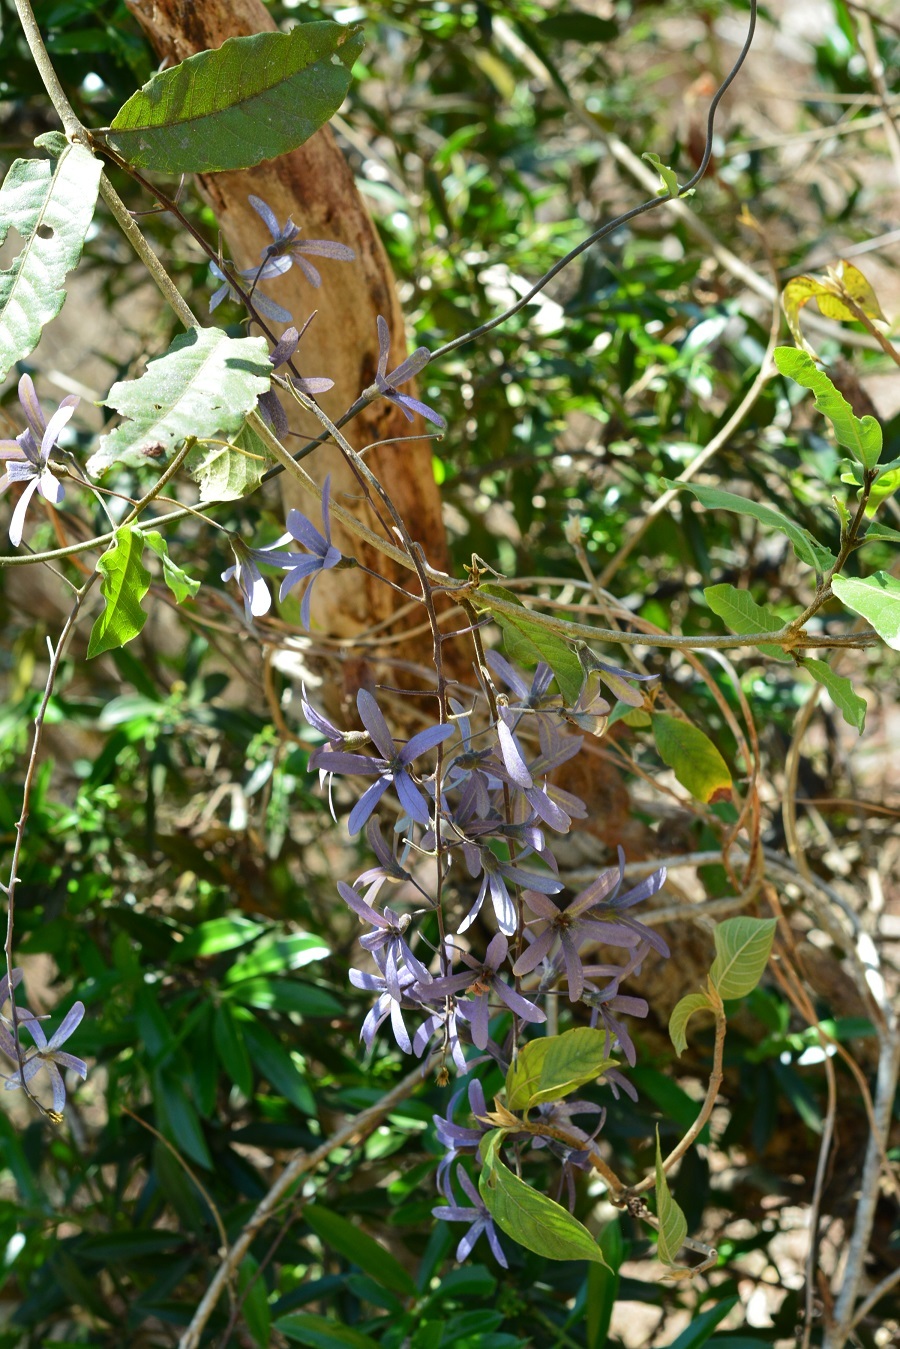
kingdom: Plantae
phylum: Tracheophyta
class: Magnoliopsida
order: Lamiales
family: Verbenaceae
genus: Petrea
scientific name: Petrea volubilis
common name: Queen's-wreath
